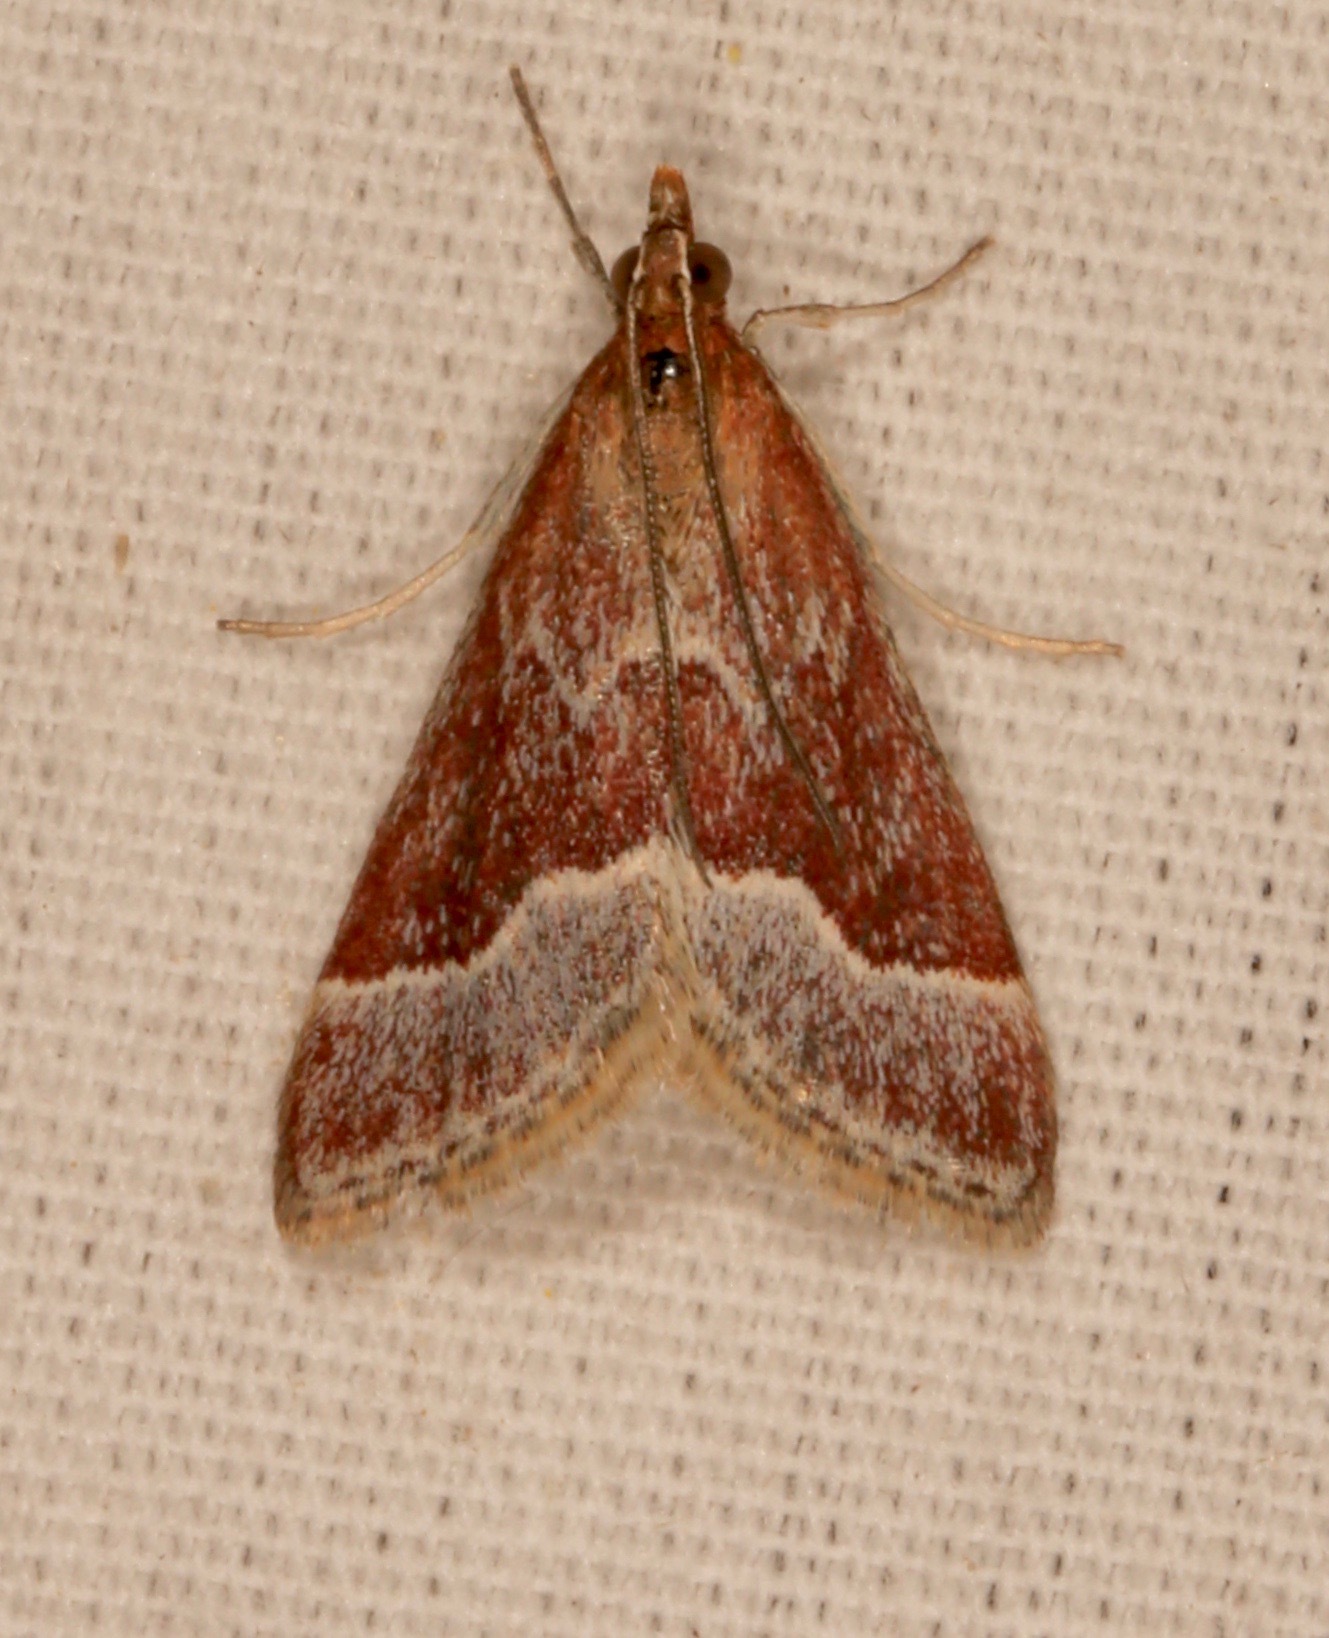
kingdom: Animalia
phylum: Arthropoda
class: Insecta
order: Lepidoptera
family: Crambidae
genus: Pyrausta
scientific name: Pyrausta lethalis
